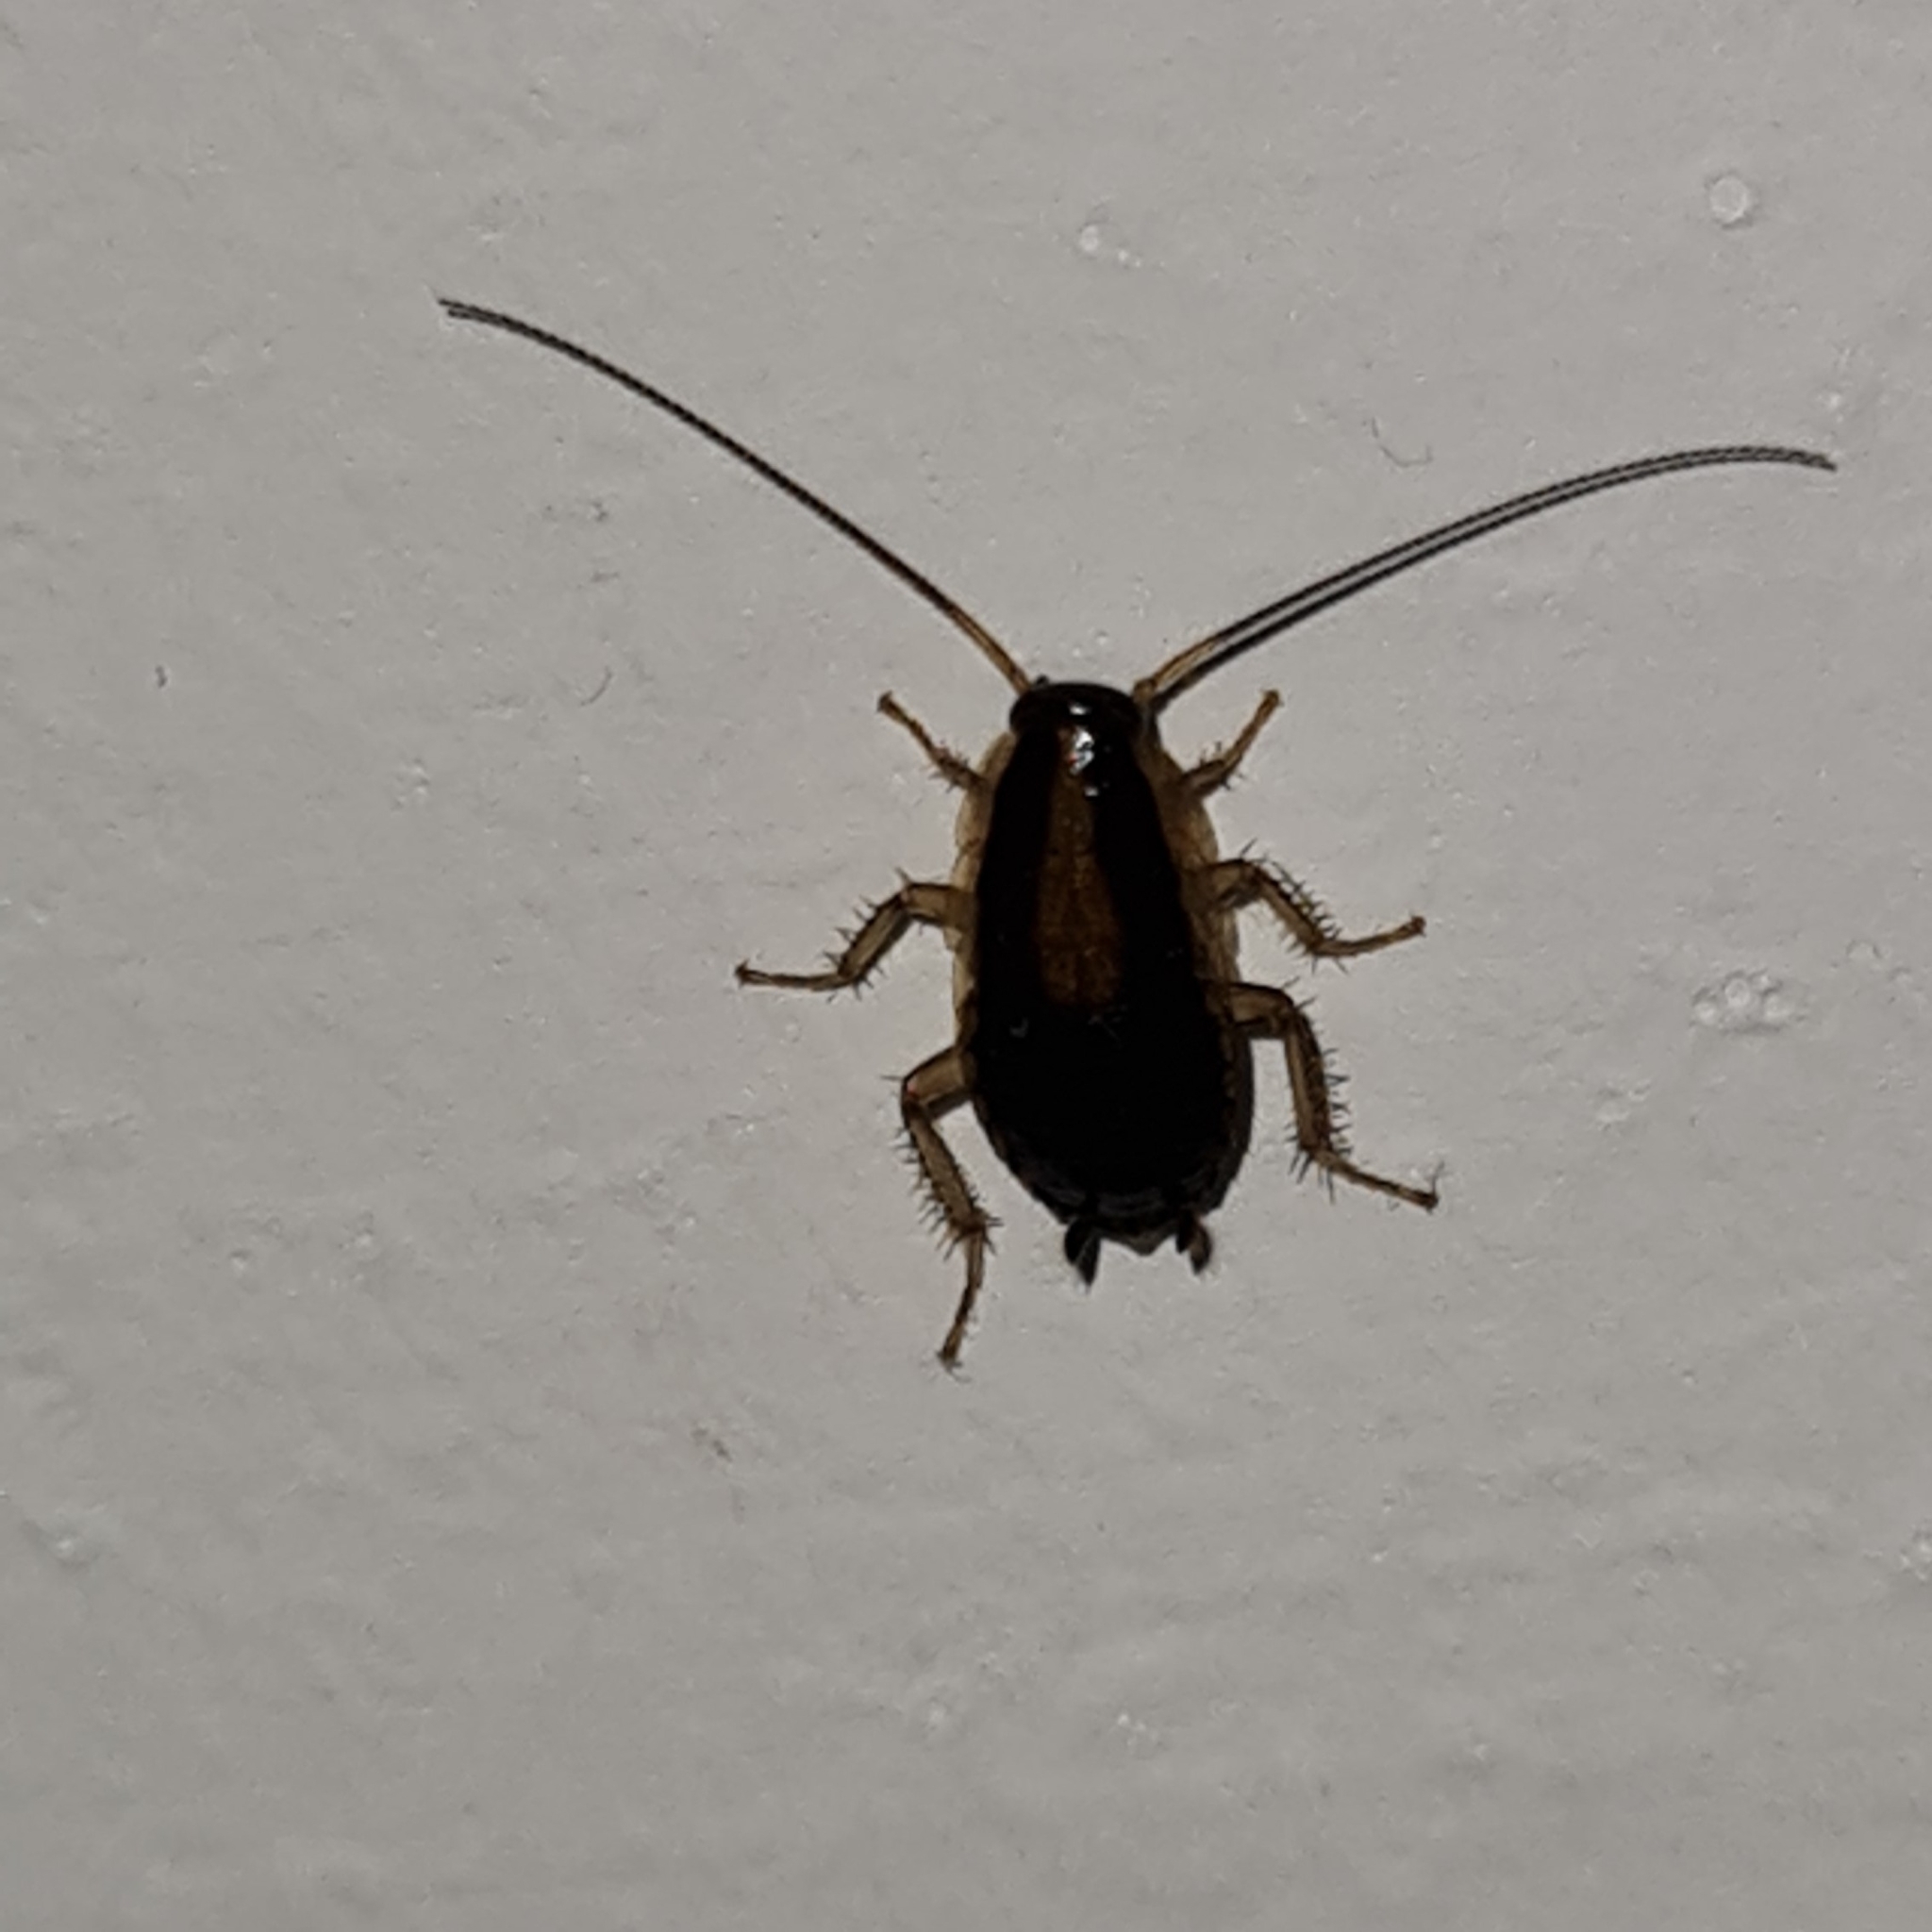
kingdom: Animalia
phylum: Arthropoda
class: Insecta
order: Blattodea
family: Ectobiidae
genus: Blattella
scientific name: Blattella germanica
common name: German cockroach
